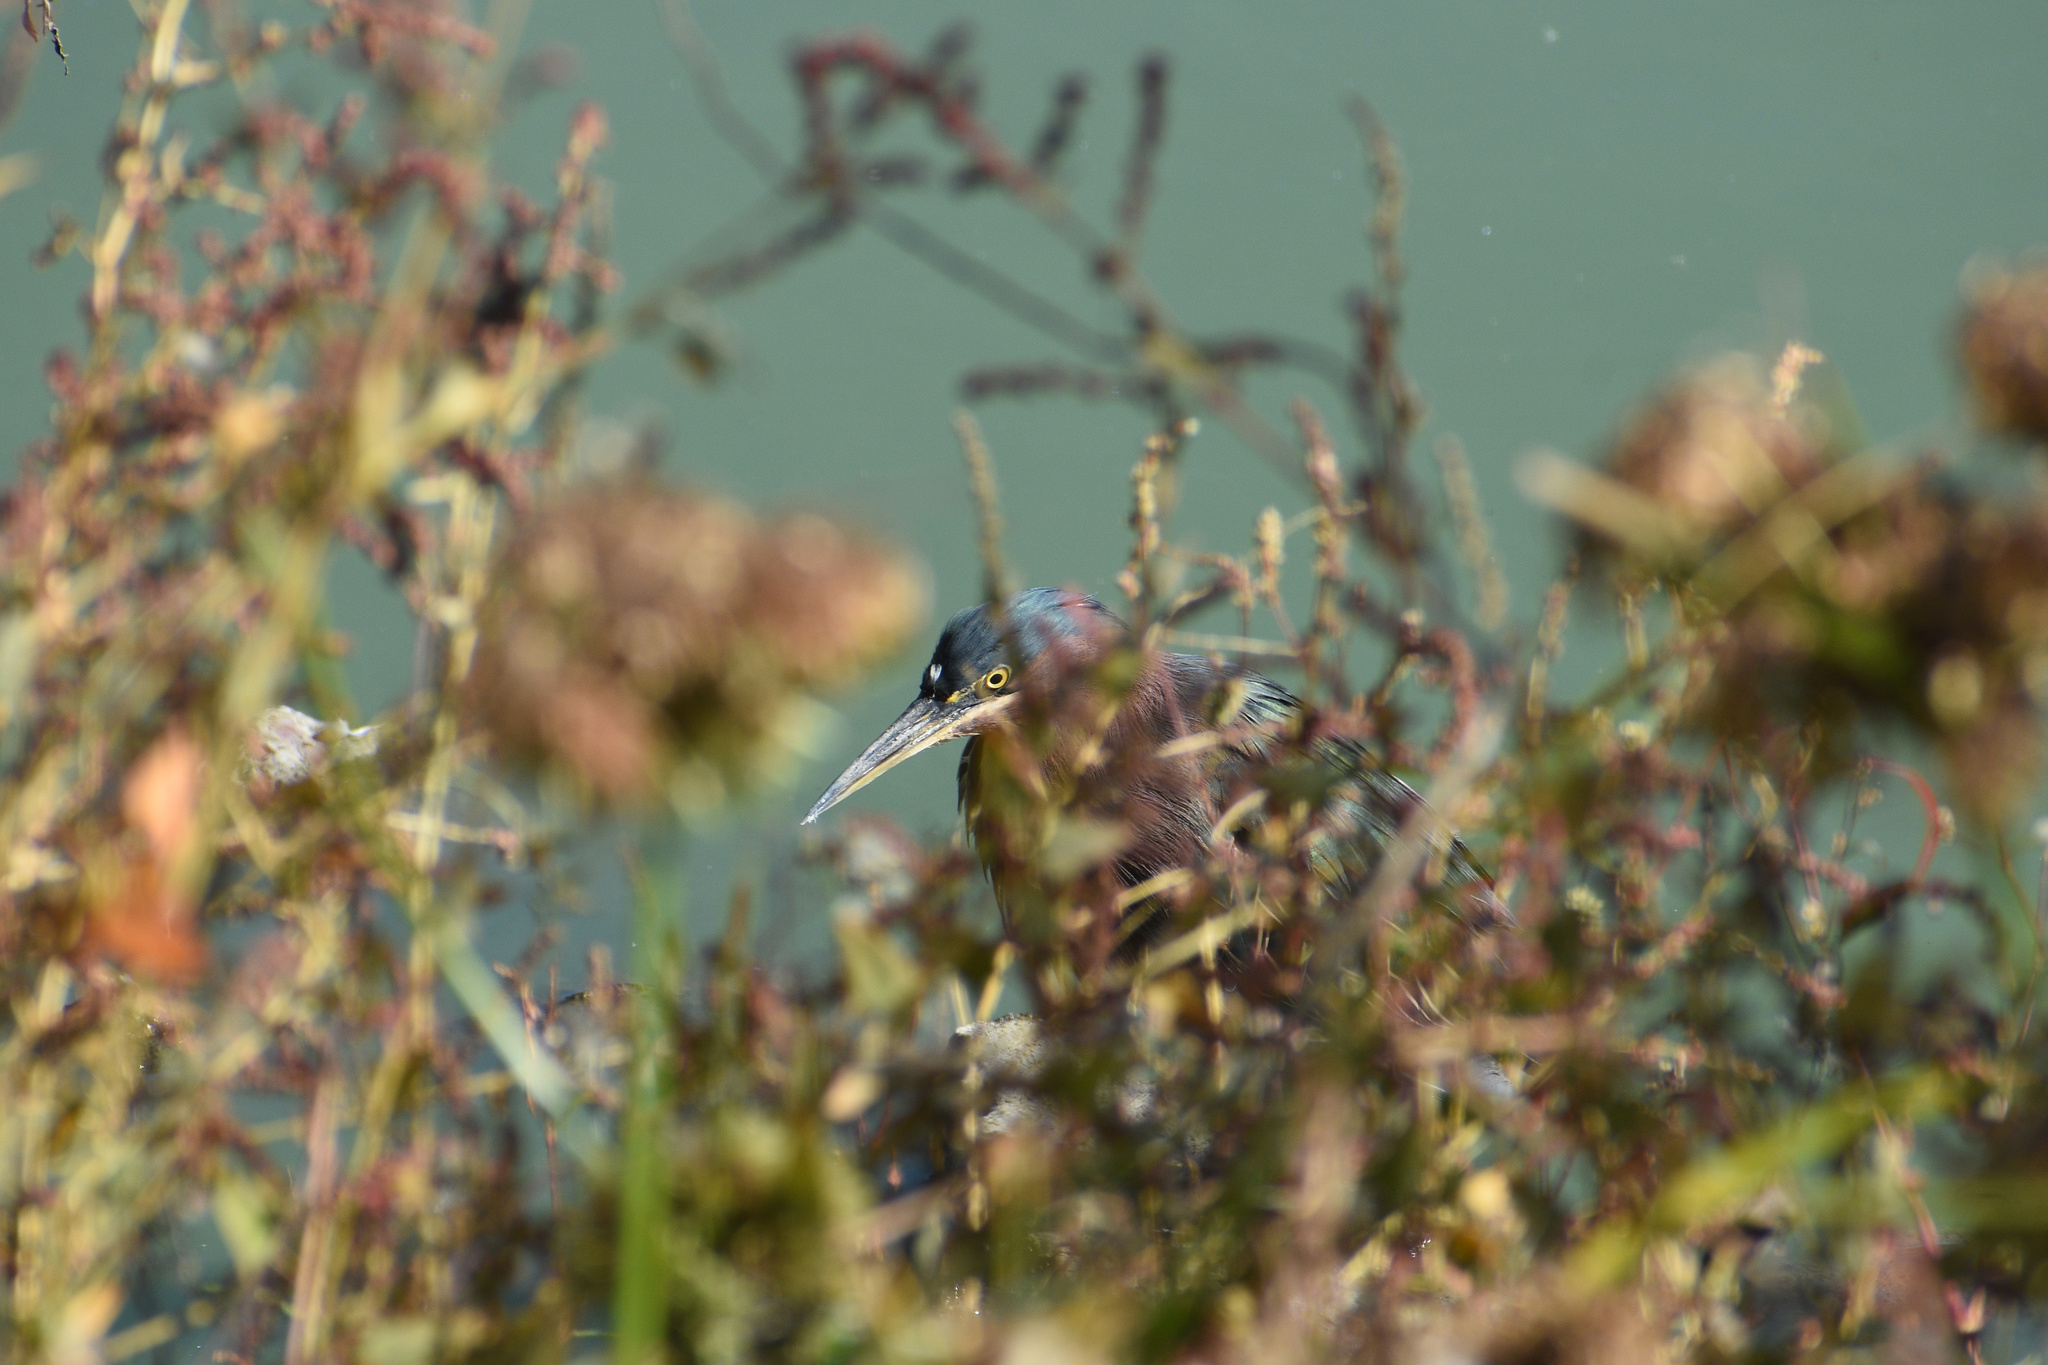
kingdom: Animalia
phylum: Chordata
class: Aves
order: Pelecaniformes
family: Ardeidae
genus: Butorides
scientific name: Butorides virescens
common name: Green heron
